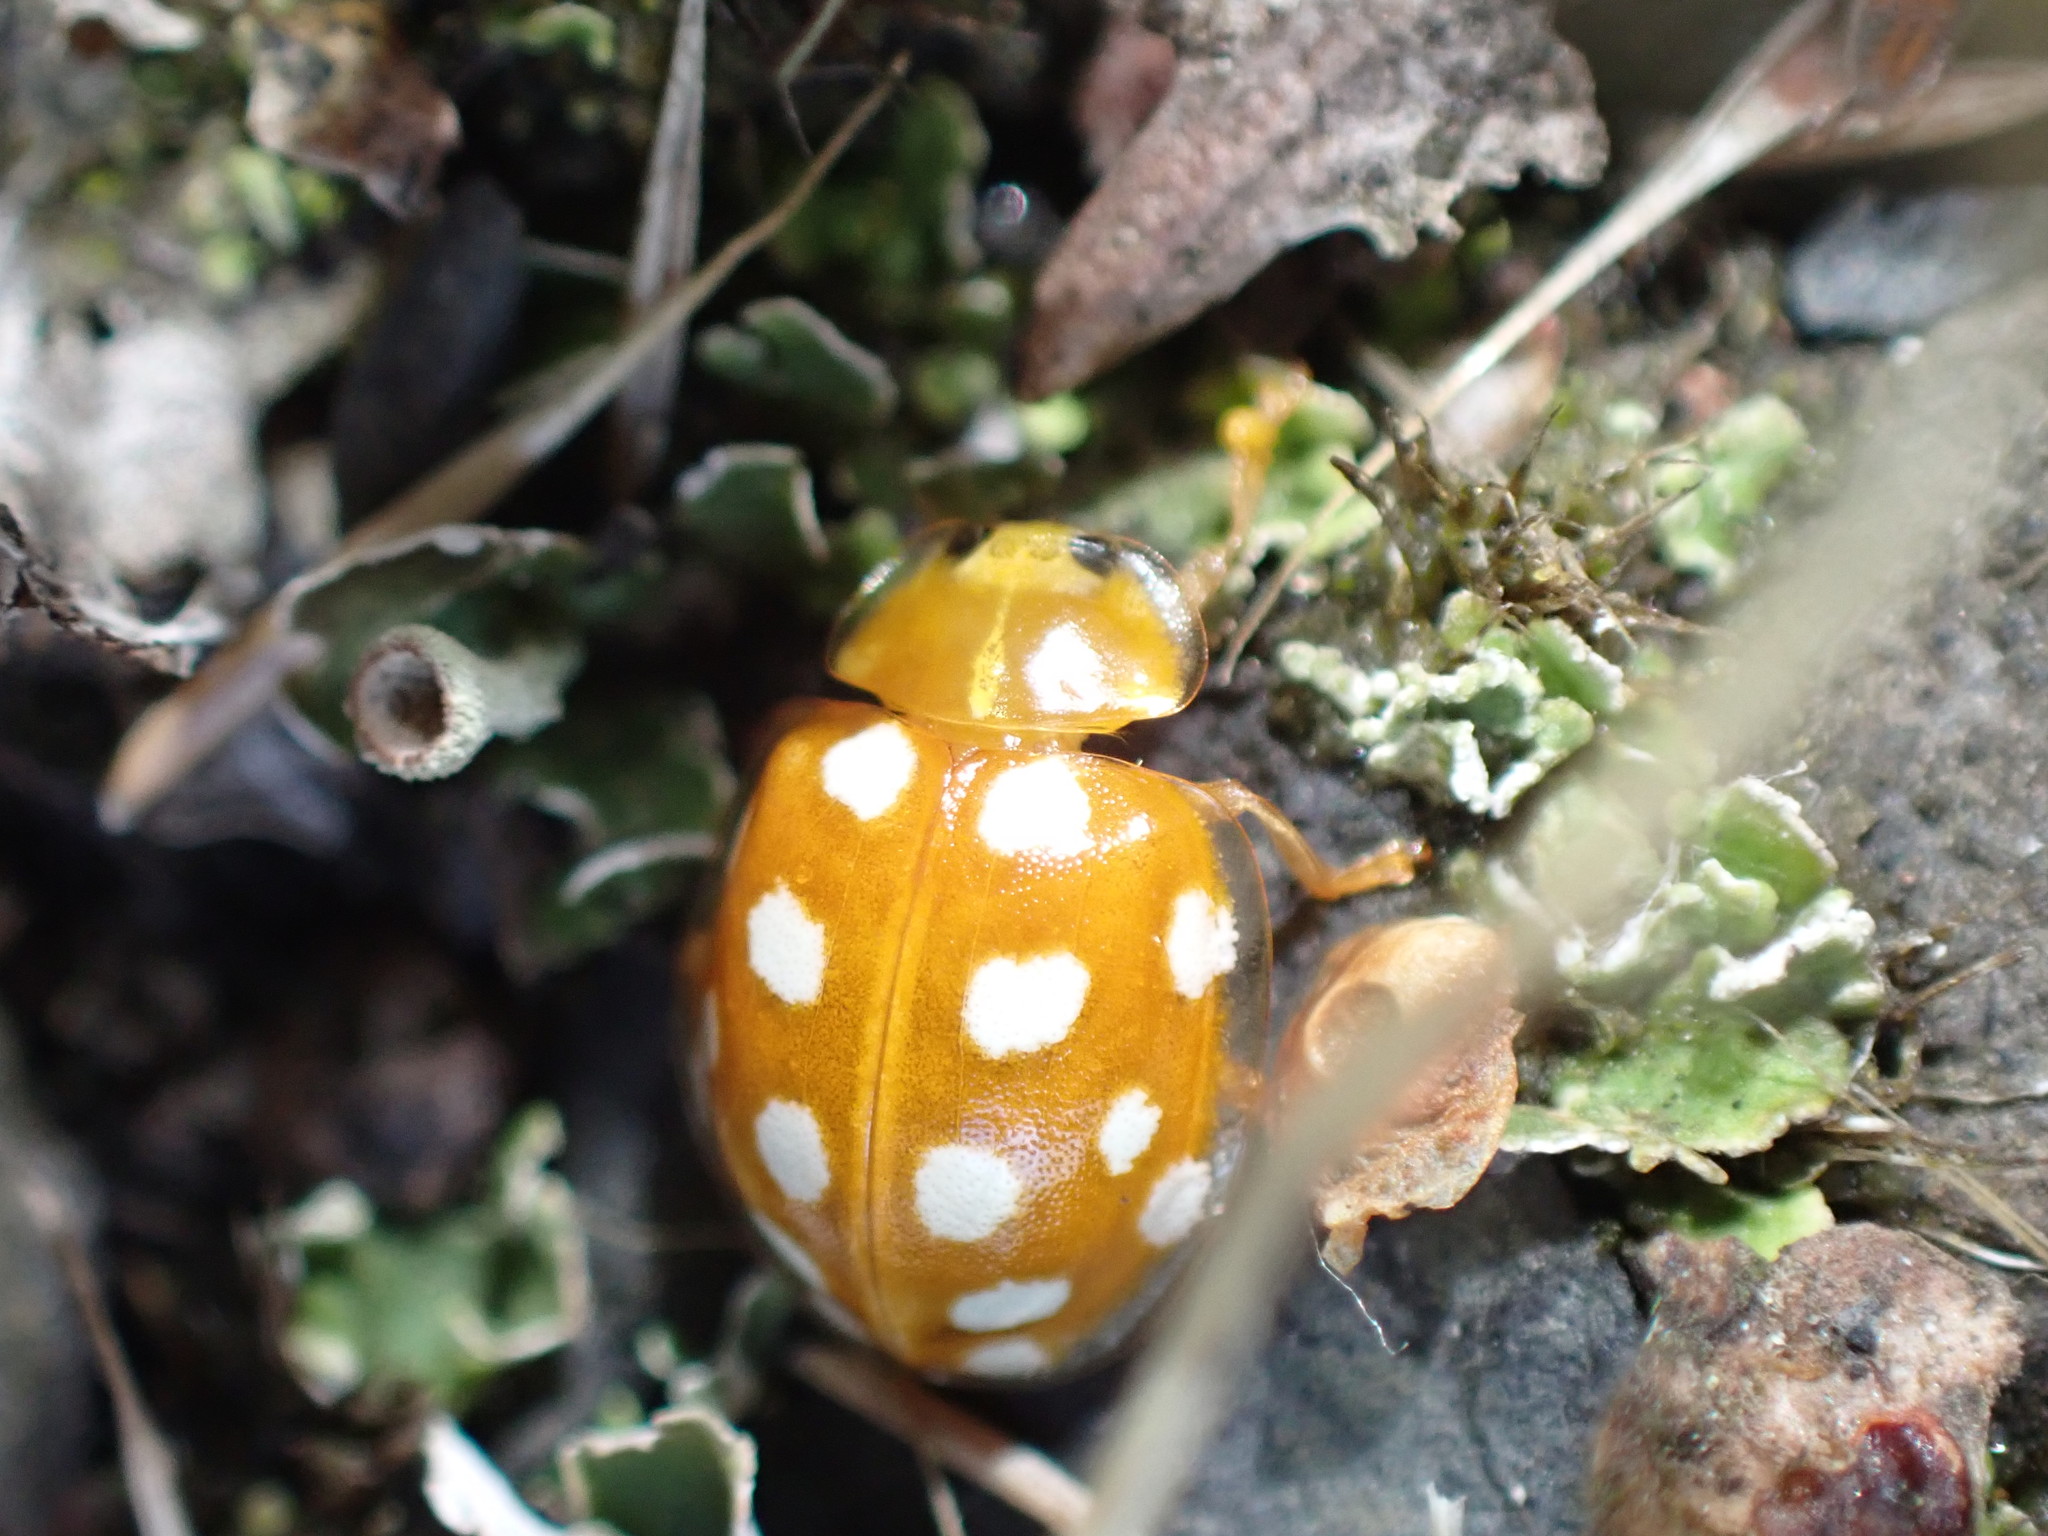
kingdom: Animalia
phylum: Arthropoda
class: Insecta
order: Coleoptera
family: Coccinellidae
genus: Halyzia
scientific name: Halyzia sedecimguttata
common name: Orange ladybird
